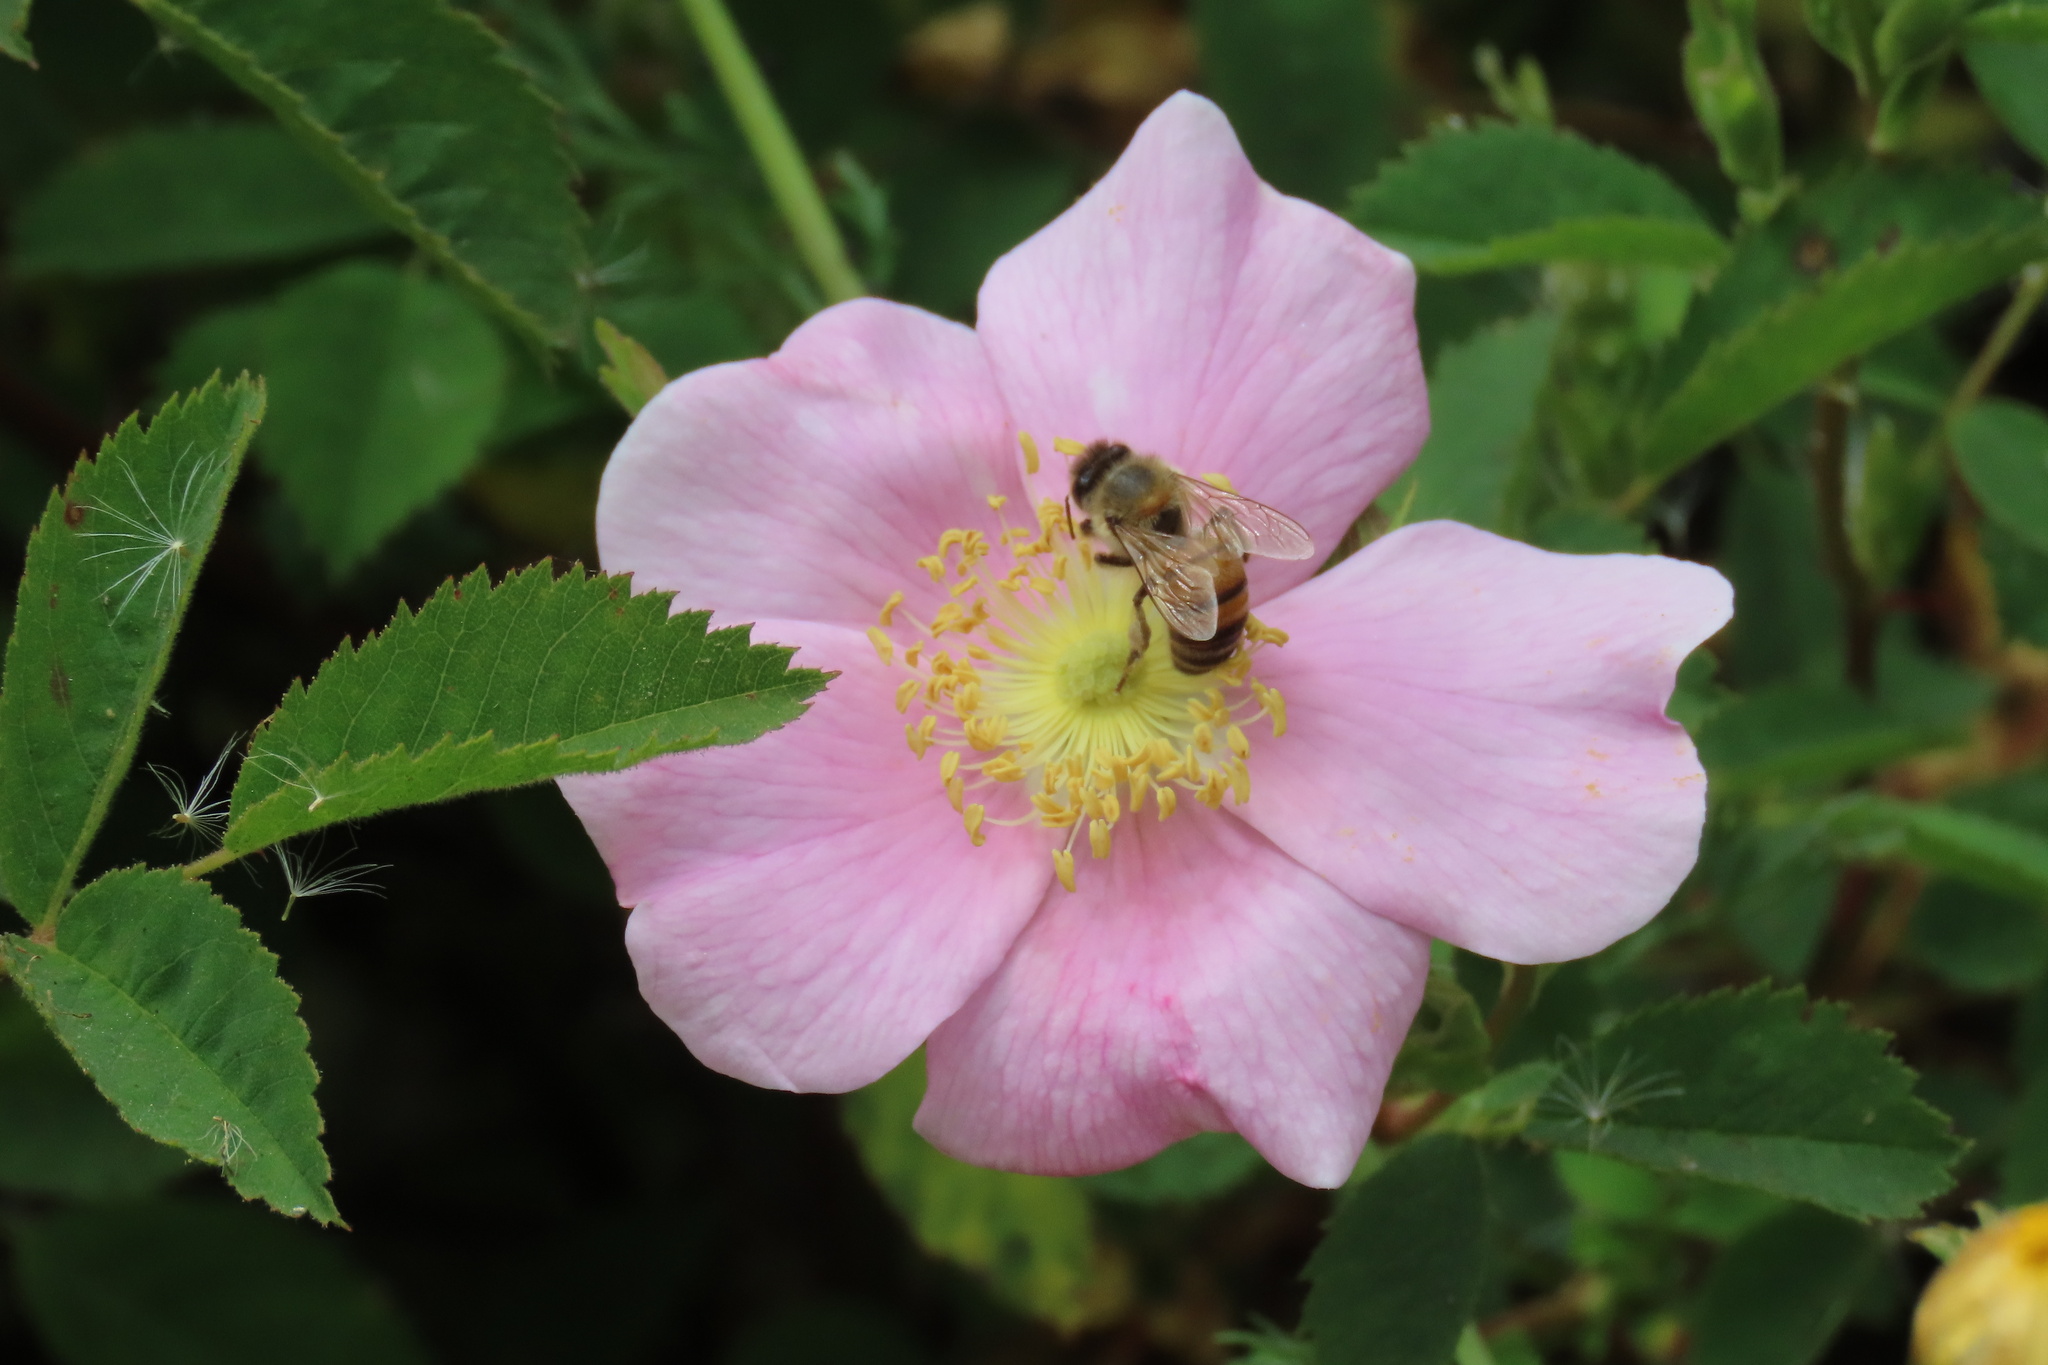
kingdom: Animalia
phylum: Arthropoda
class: Insecta
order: Hymenoptera
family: Apidae
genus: Apis
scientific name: Apis mellifera
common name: Honey bee
